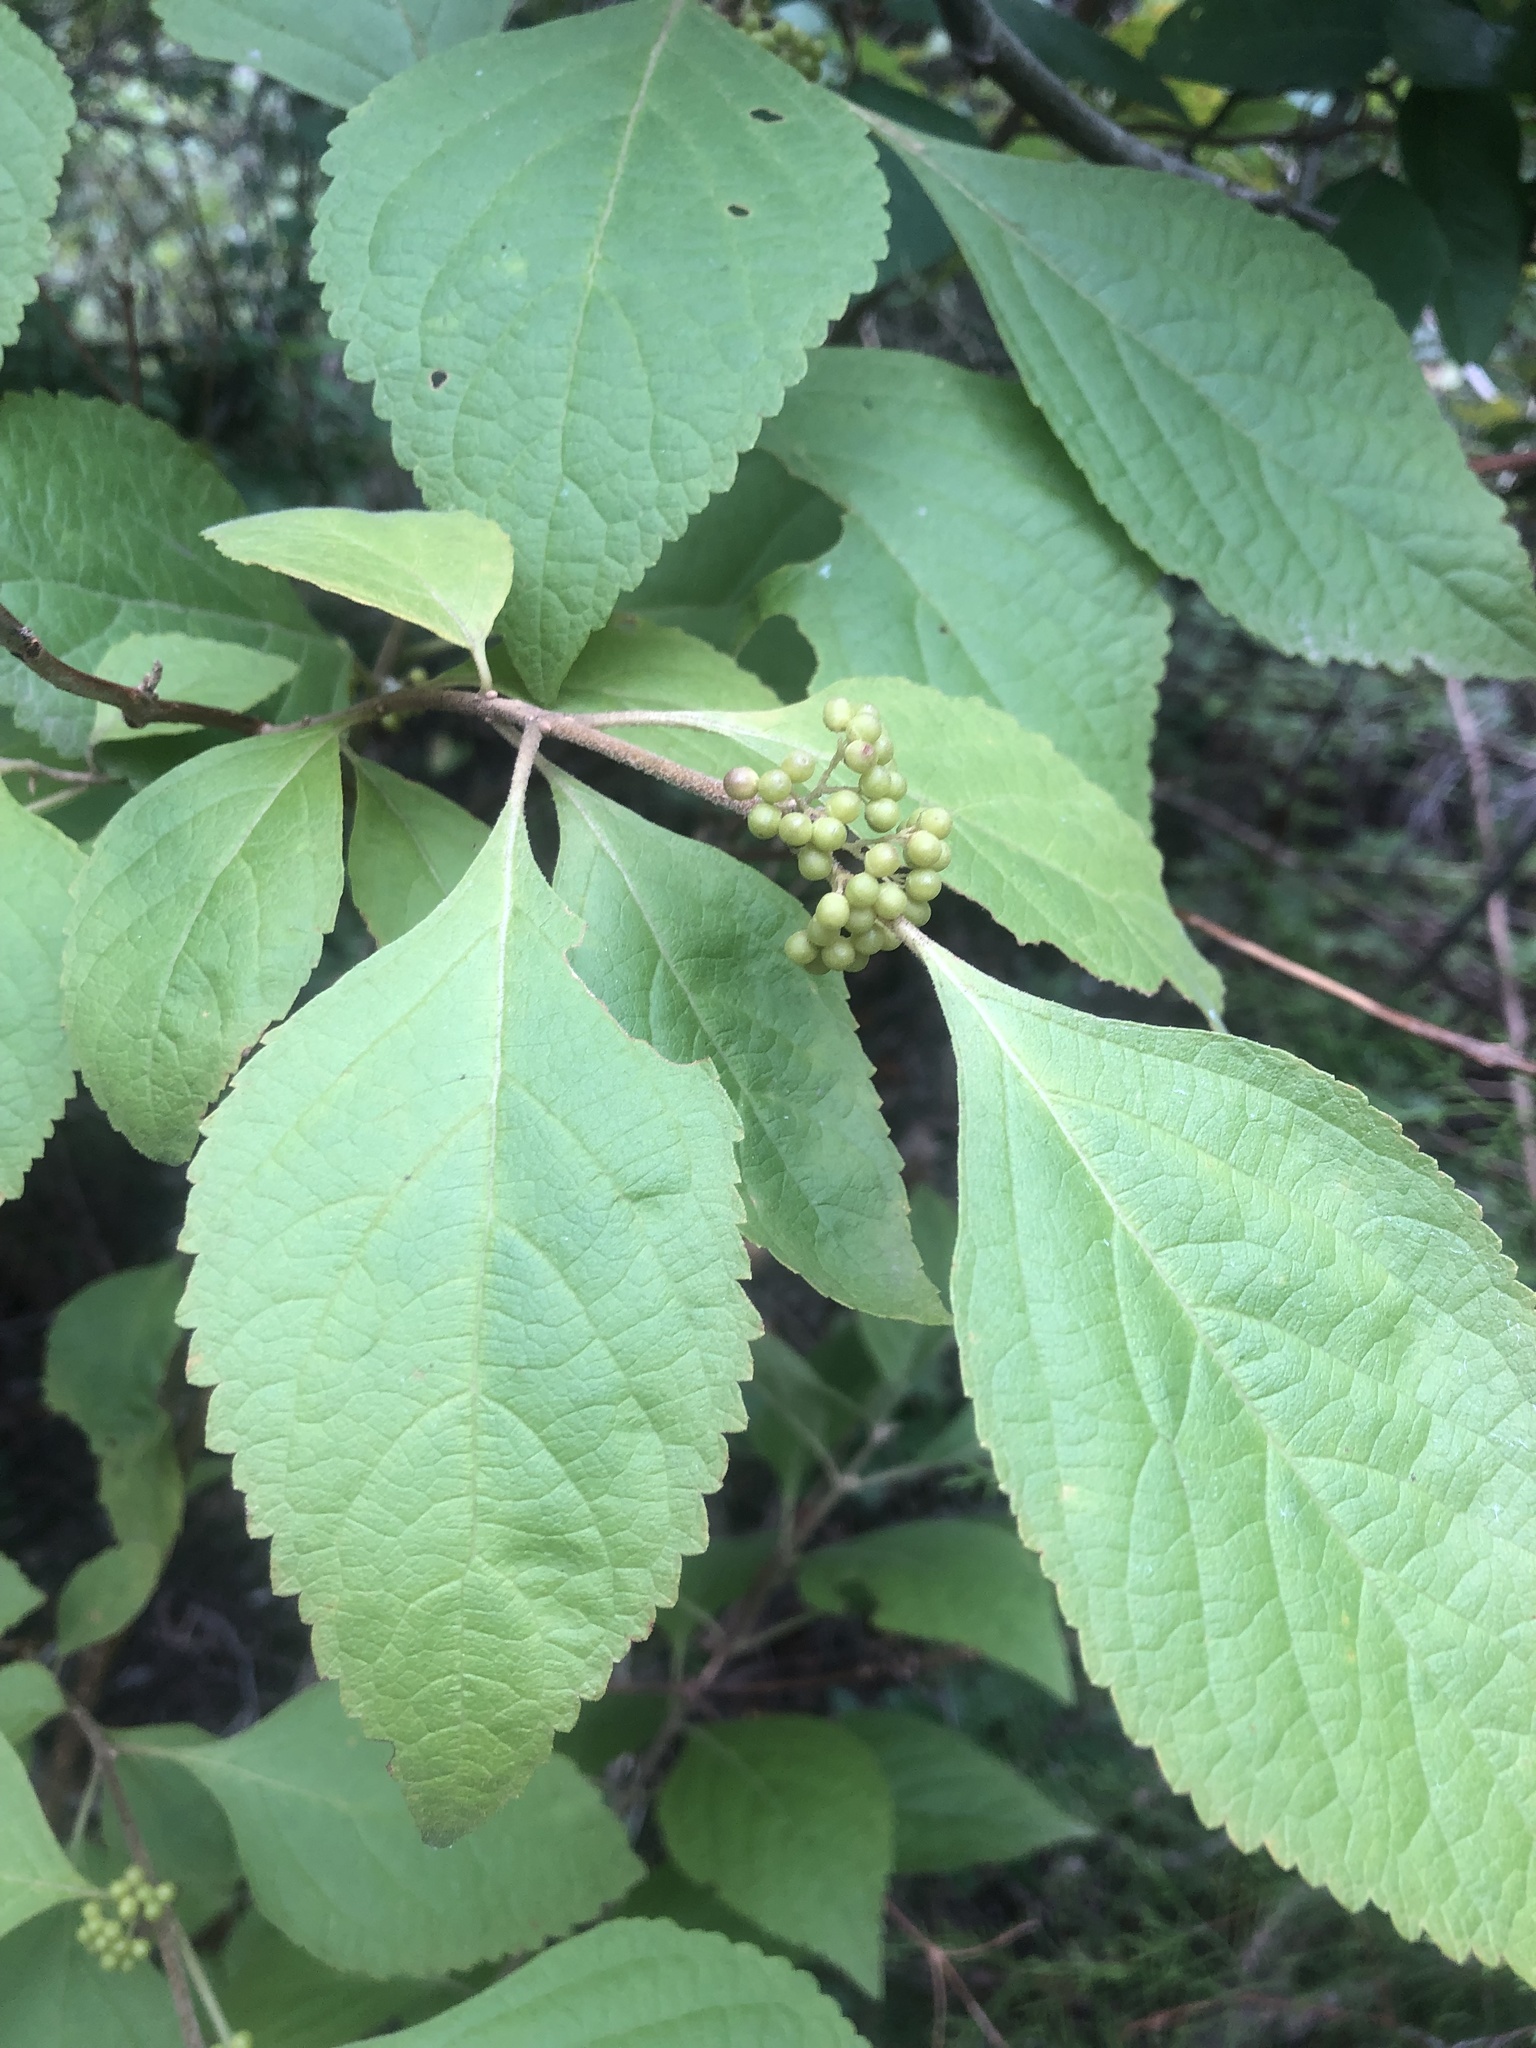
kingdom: Plantae
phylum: Tracheophyta
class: Magnoliopsida
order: Lamiales
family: Lamiaceae
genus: Callicarpa
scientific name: Callicarpa americana
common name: American beautyberry
